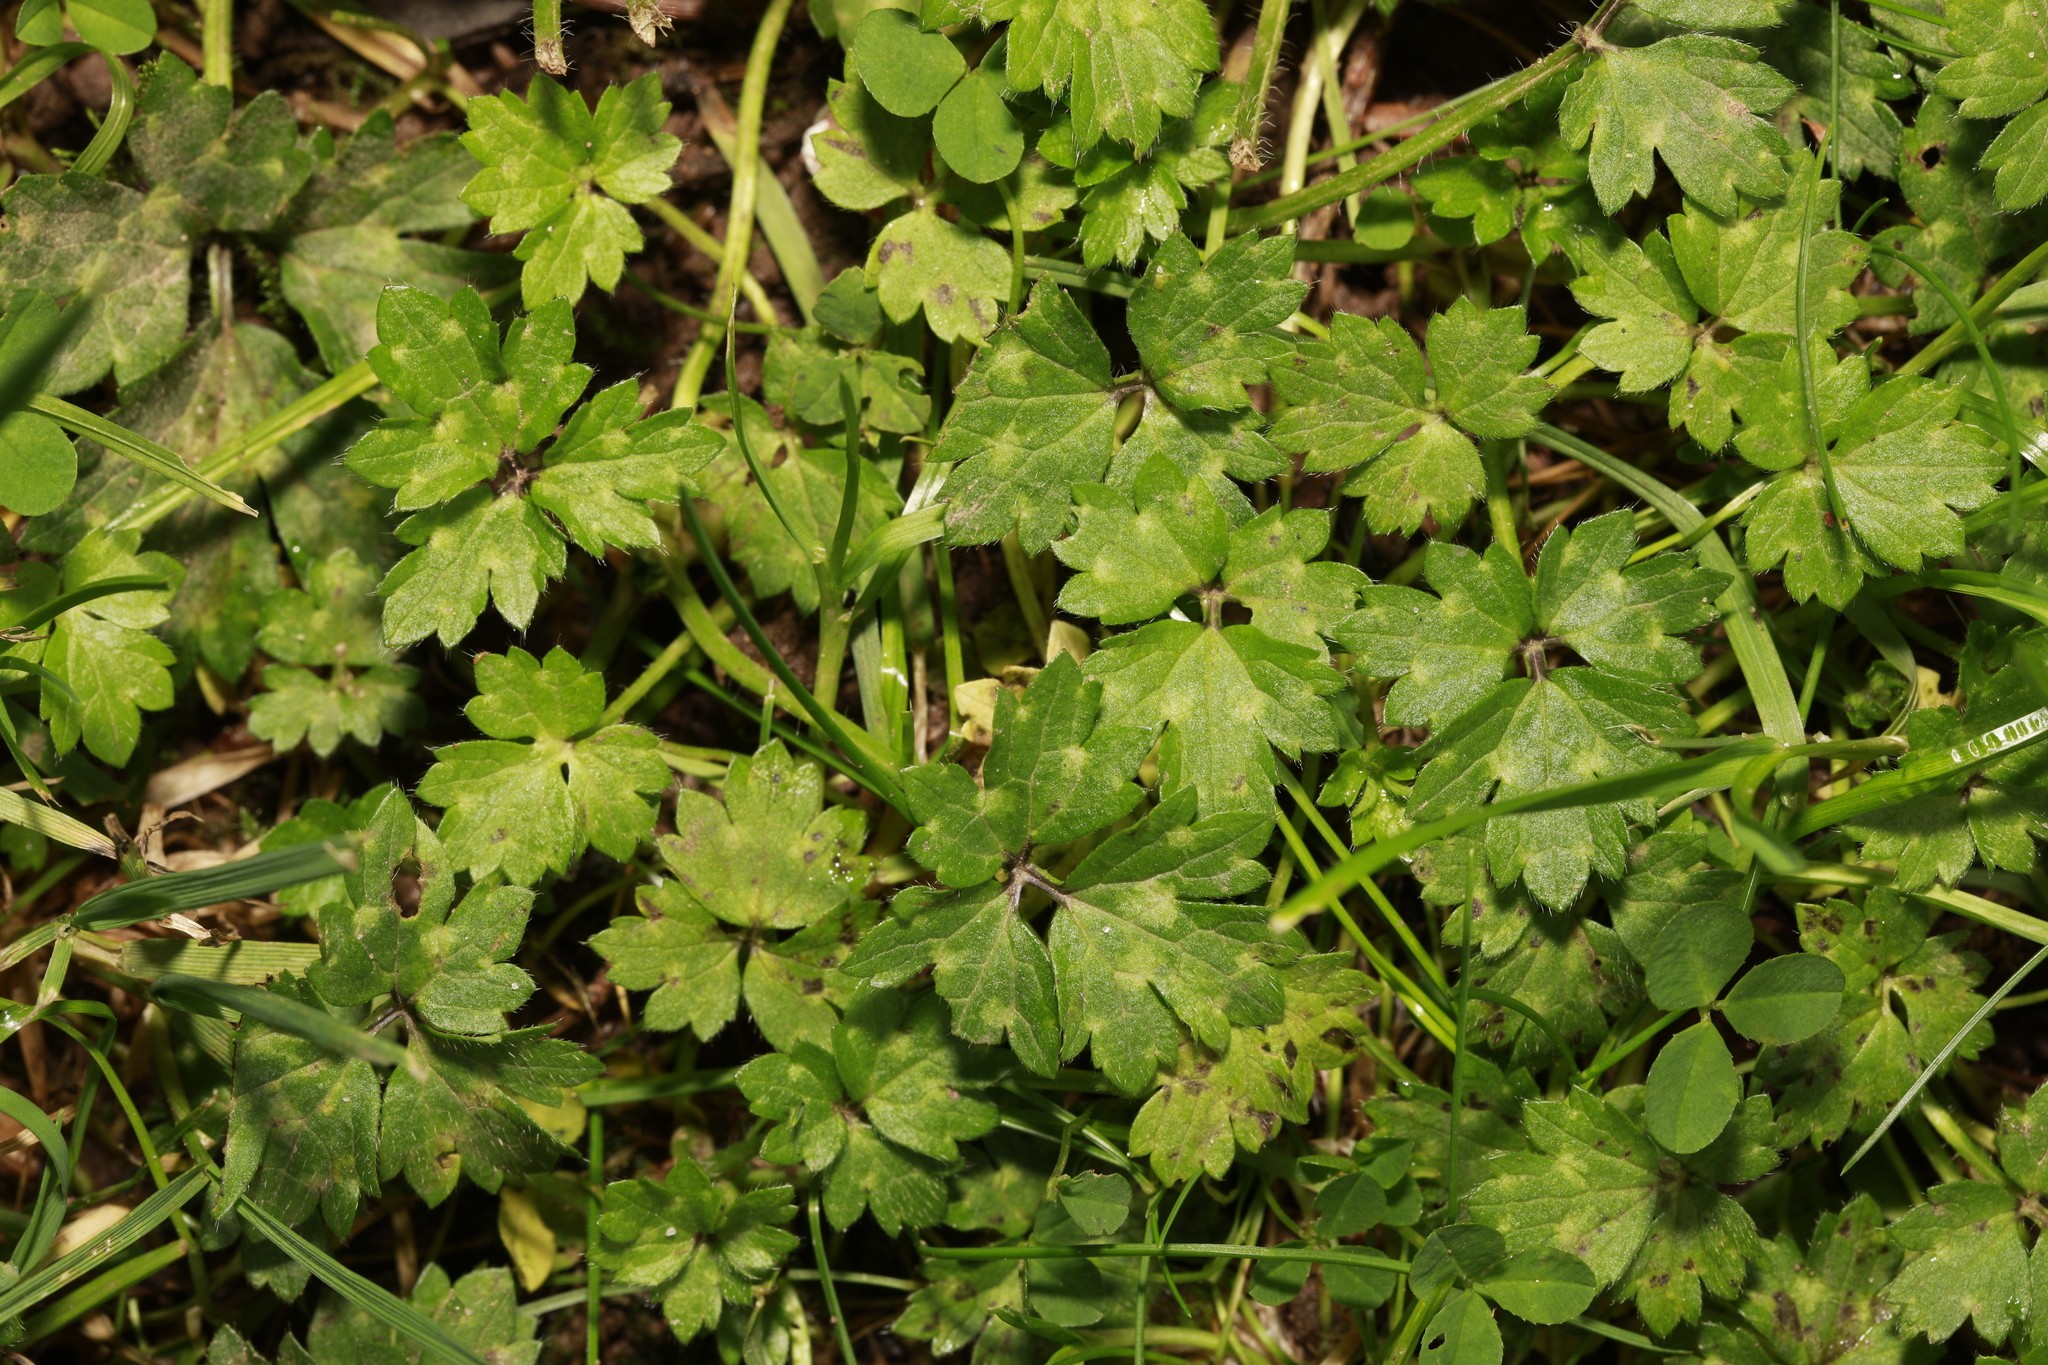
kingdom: Plantae
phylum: Tracheophyta
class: Magnoliopsida
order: Ranunculales
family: Ranunculaceae
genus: Ranunculus
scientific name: Ranunculus repens
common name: Creeping buttercup
